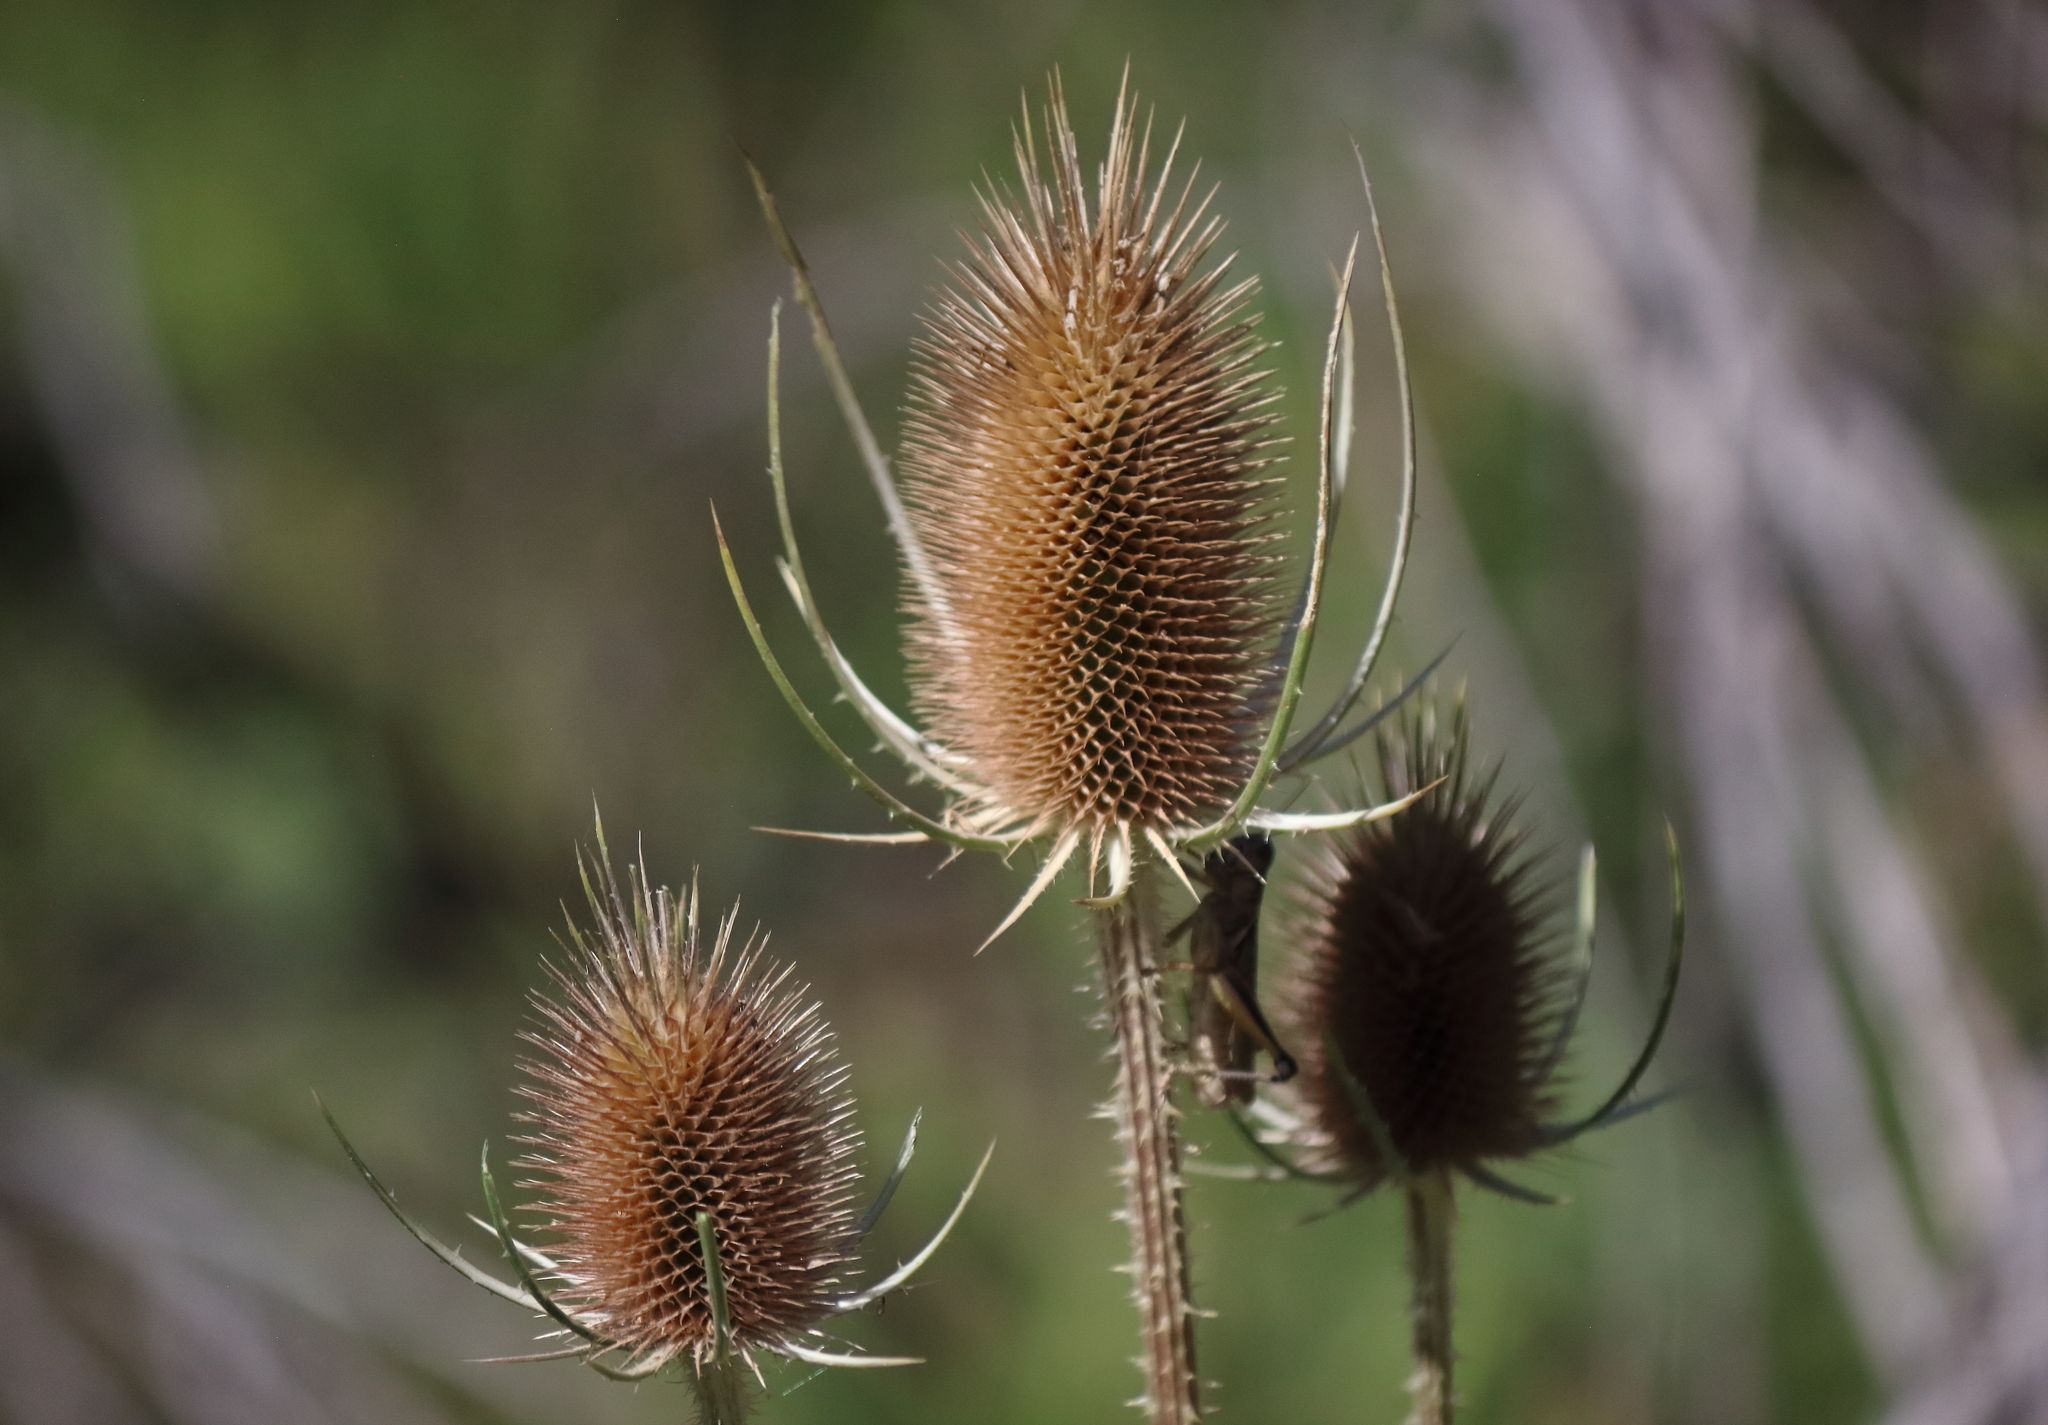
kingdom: Plantae
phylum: Tracheophyta
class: Magnoliopsida
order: Dipsacales
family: Caprifoliaceae
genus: Dipsacus
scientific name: Dipsacus fullonum
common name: Teasel
